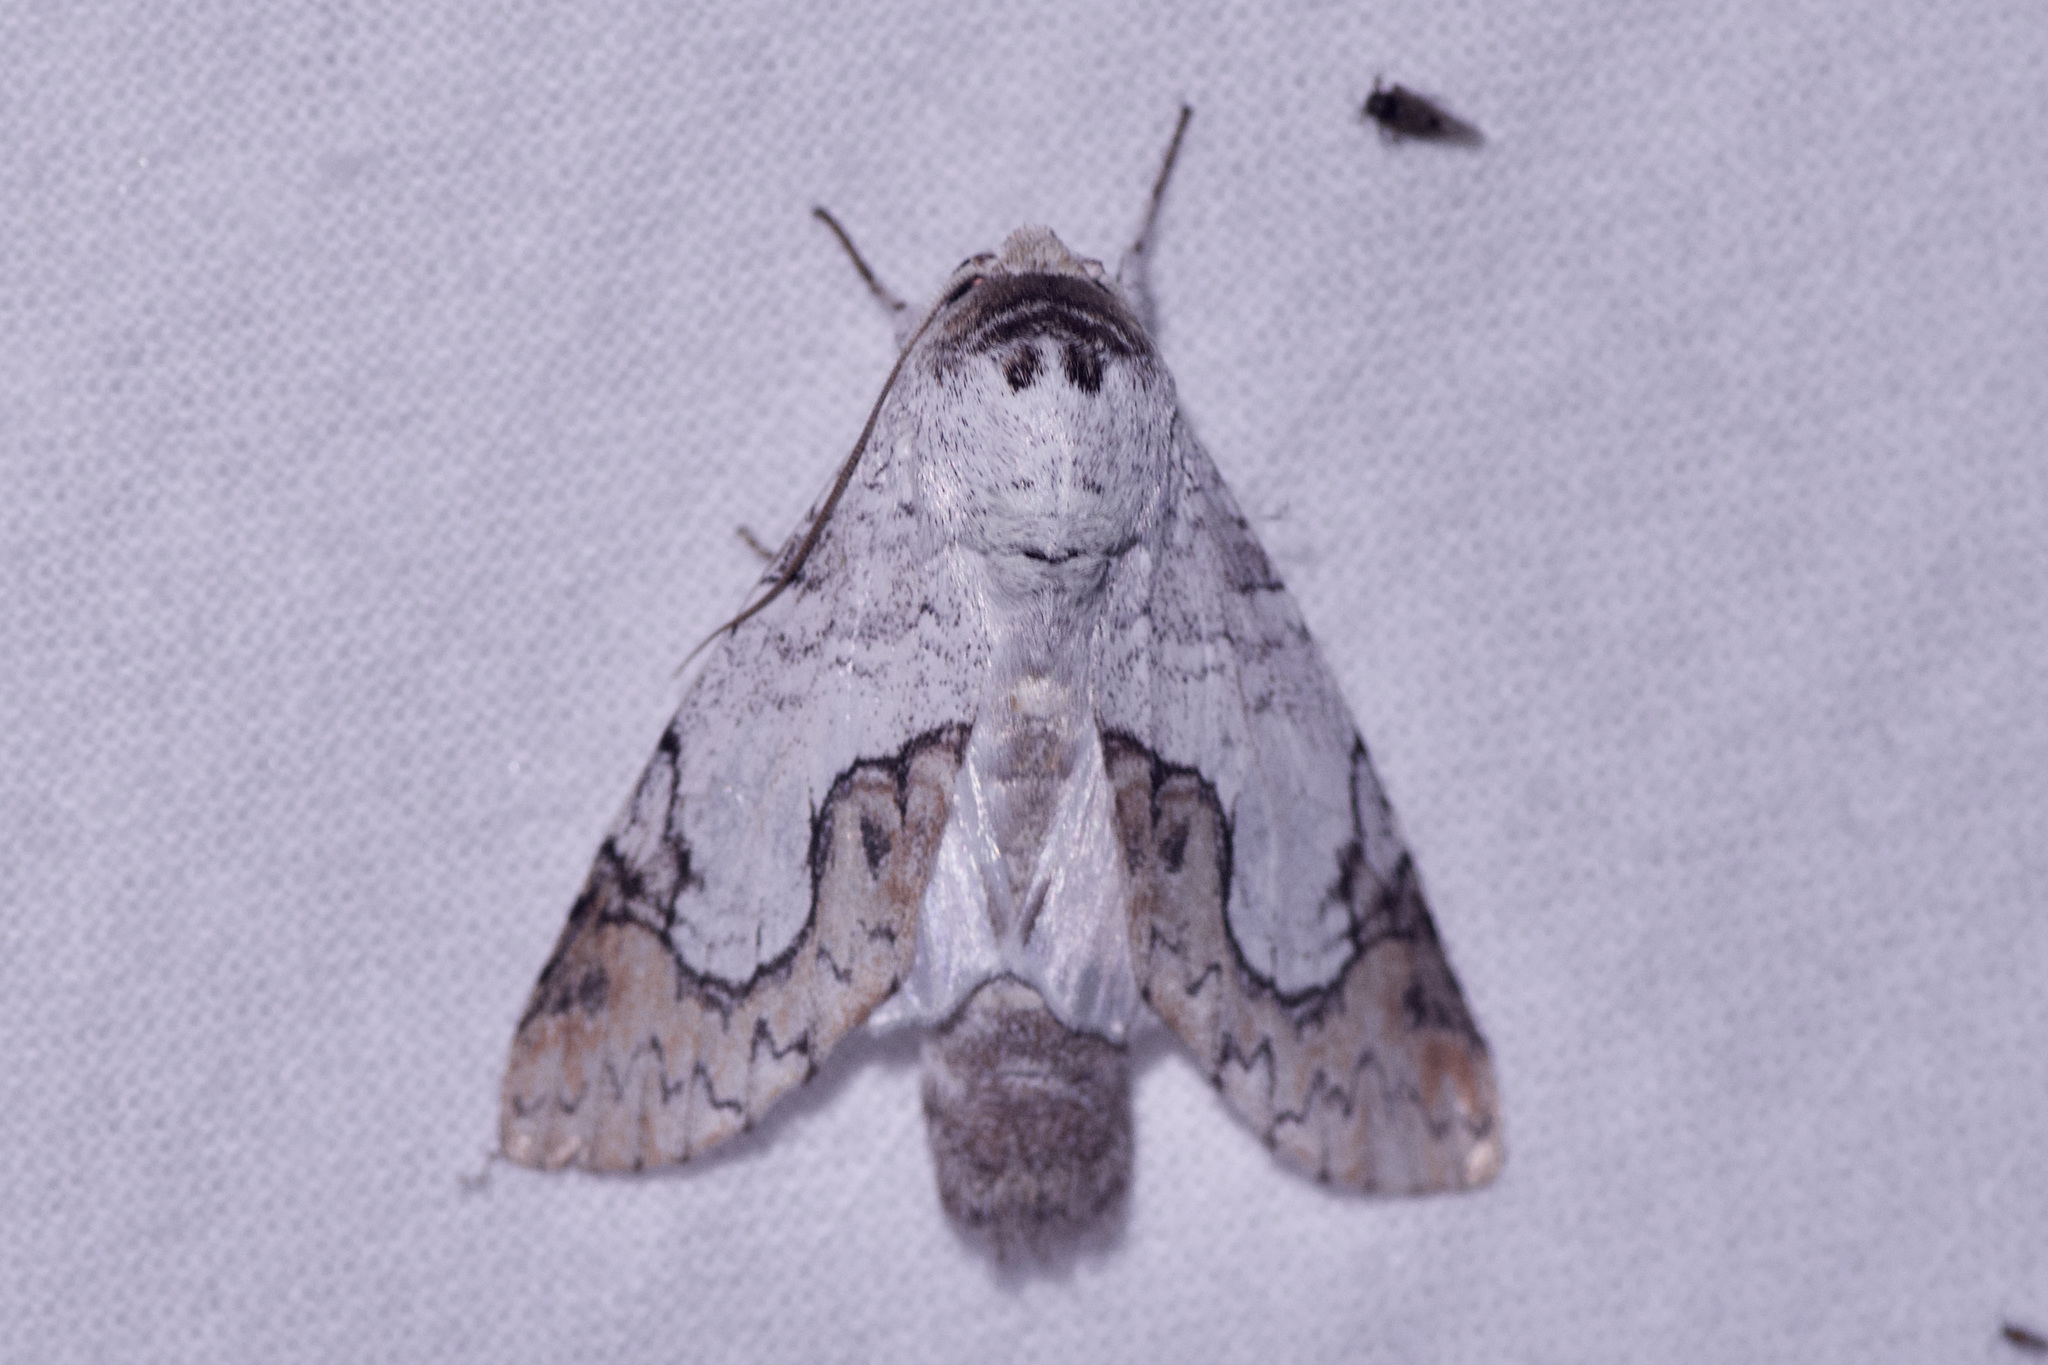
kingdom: Animalia
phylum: Arthropoda
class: Insecta
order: Lepidoptera
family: Notodontidae
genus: Ginaldia
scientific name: Ginaldia
